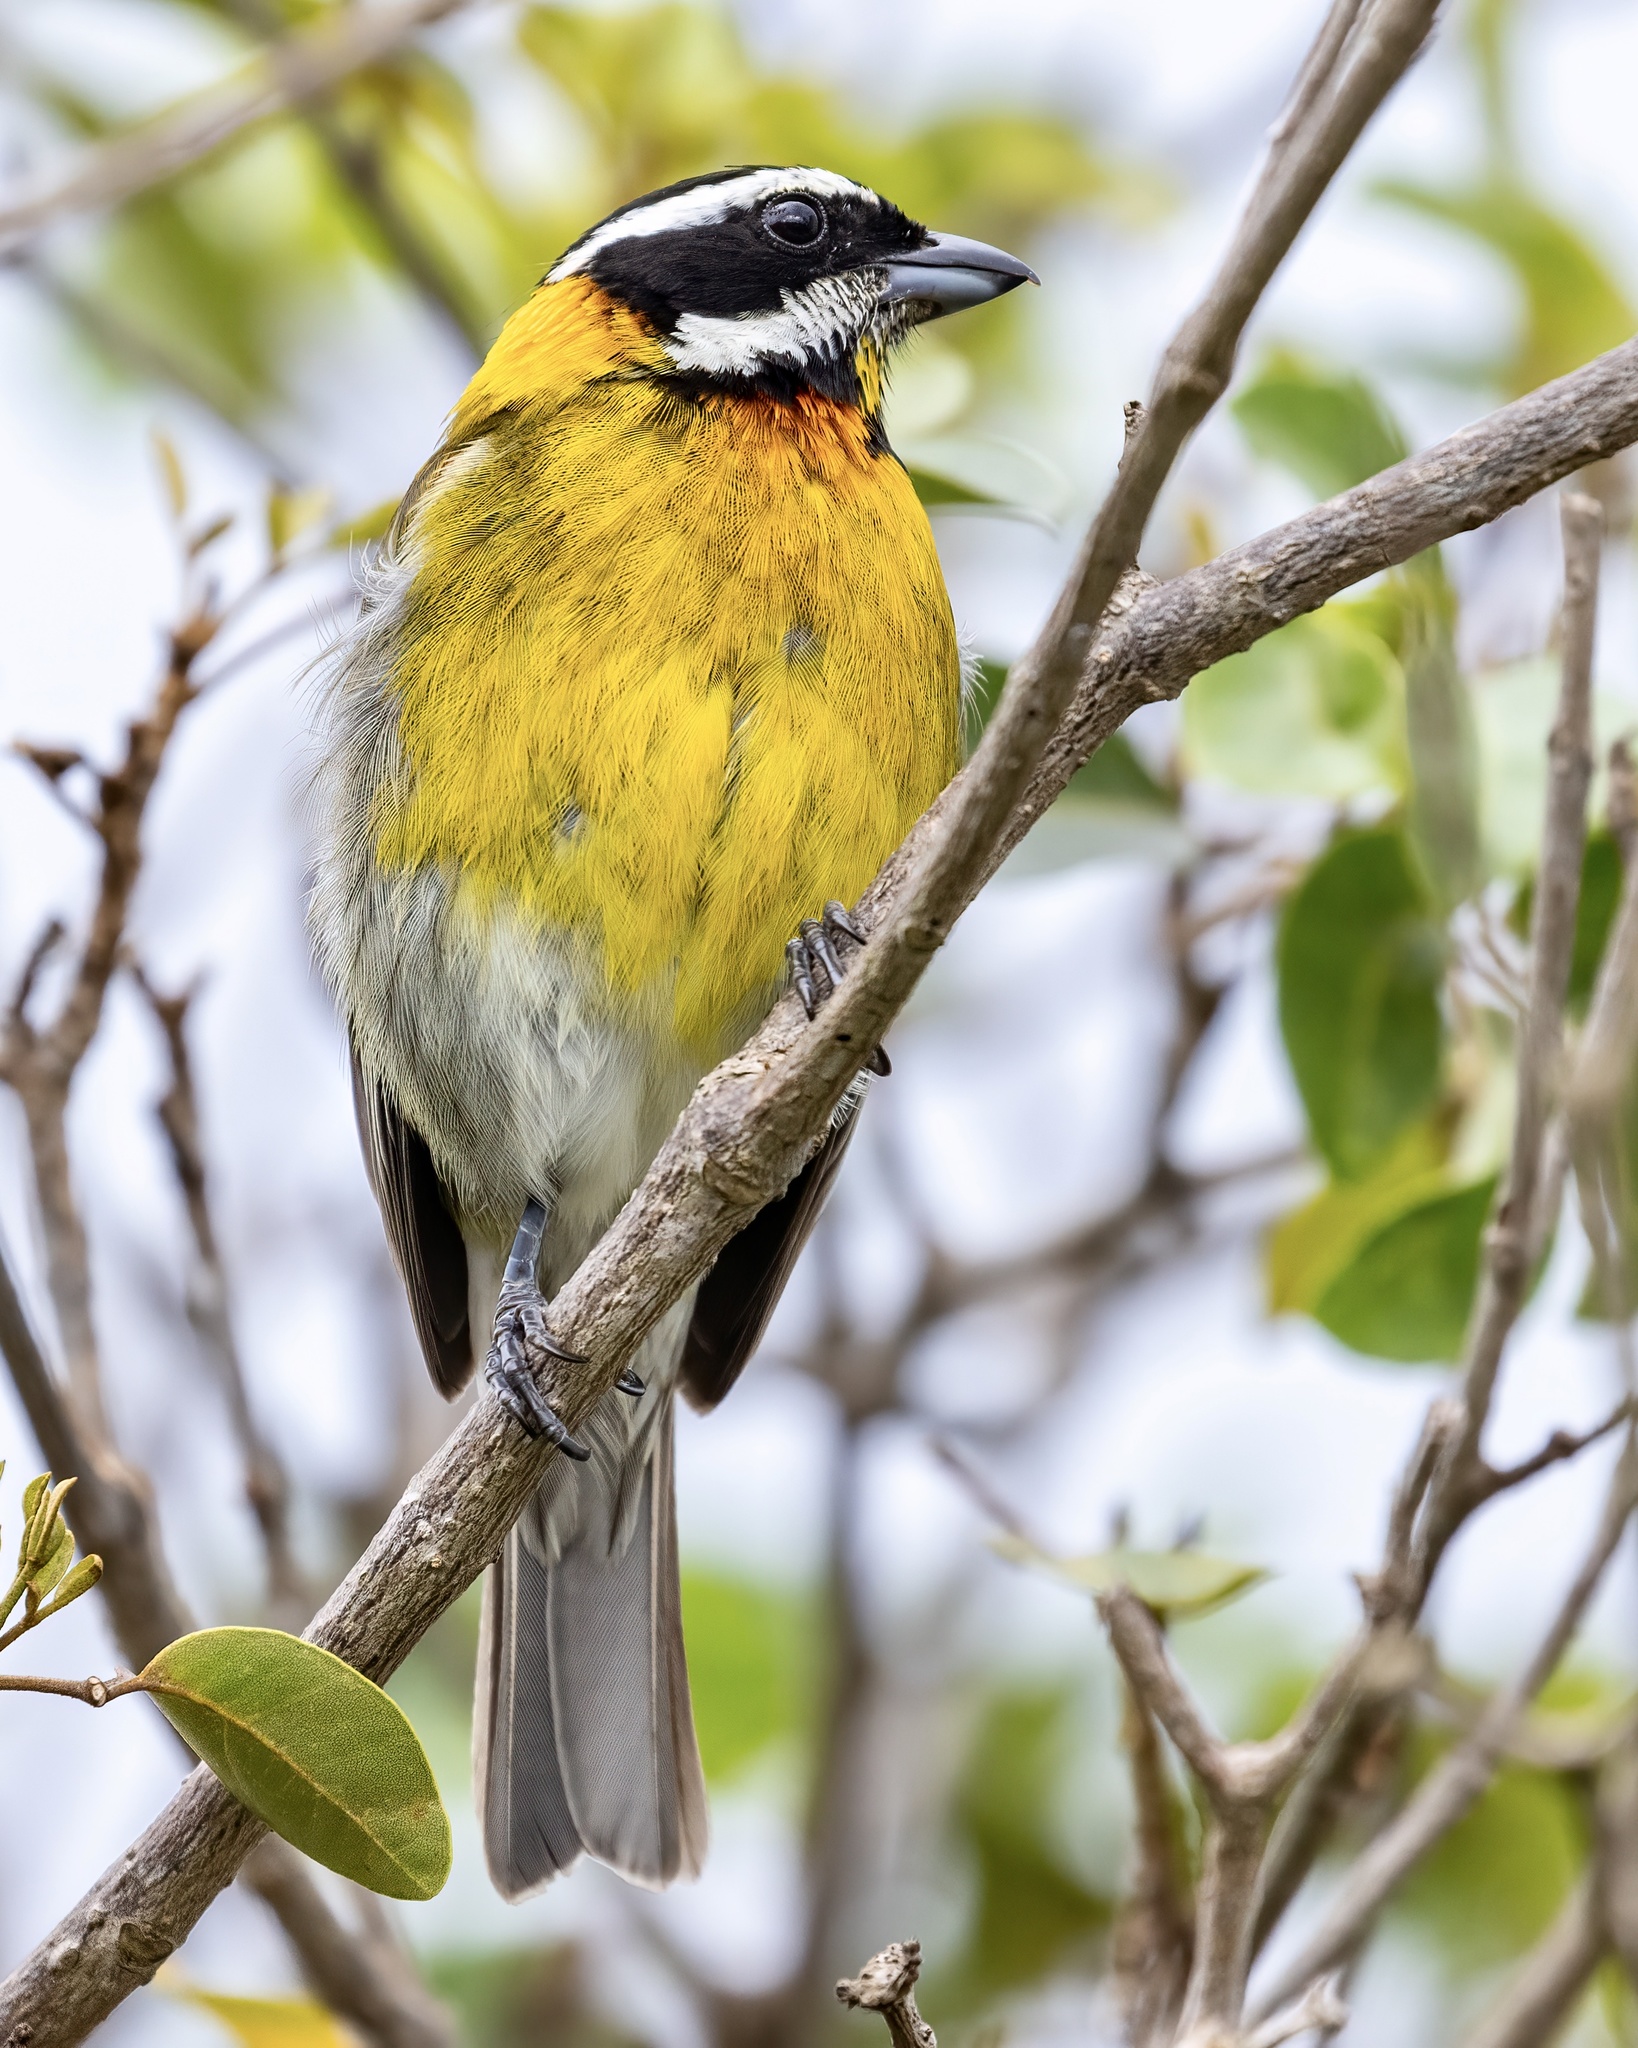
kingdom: Animalia
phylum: Chordata
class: Aves
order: Passeriformes
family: Spindalidae
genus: Spindalis
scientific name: Spindalis portoricensis
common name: Puerto rican spindalis
